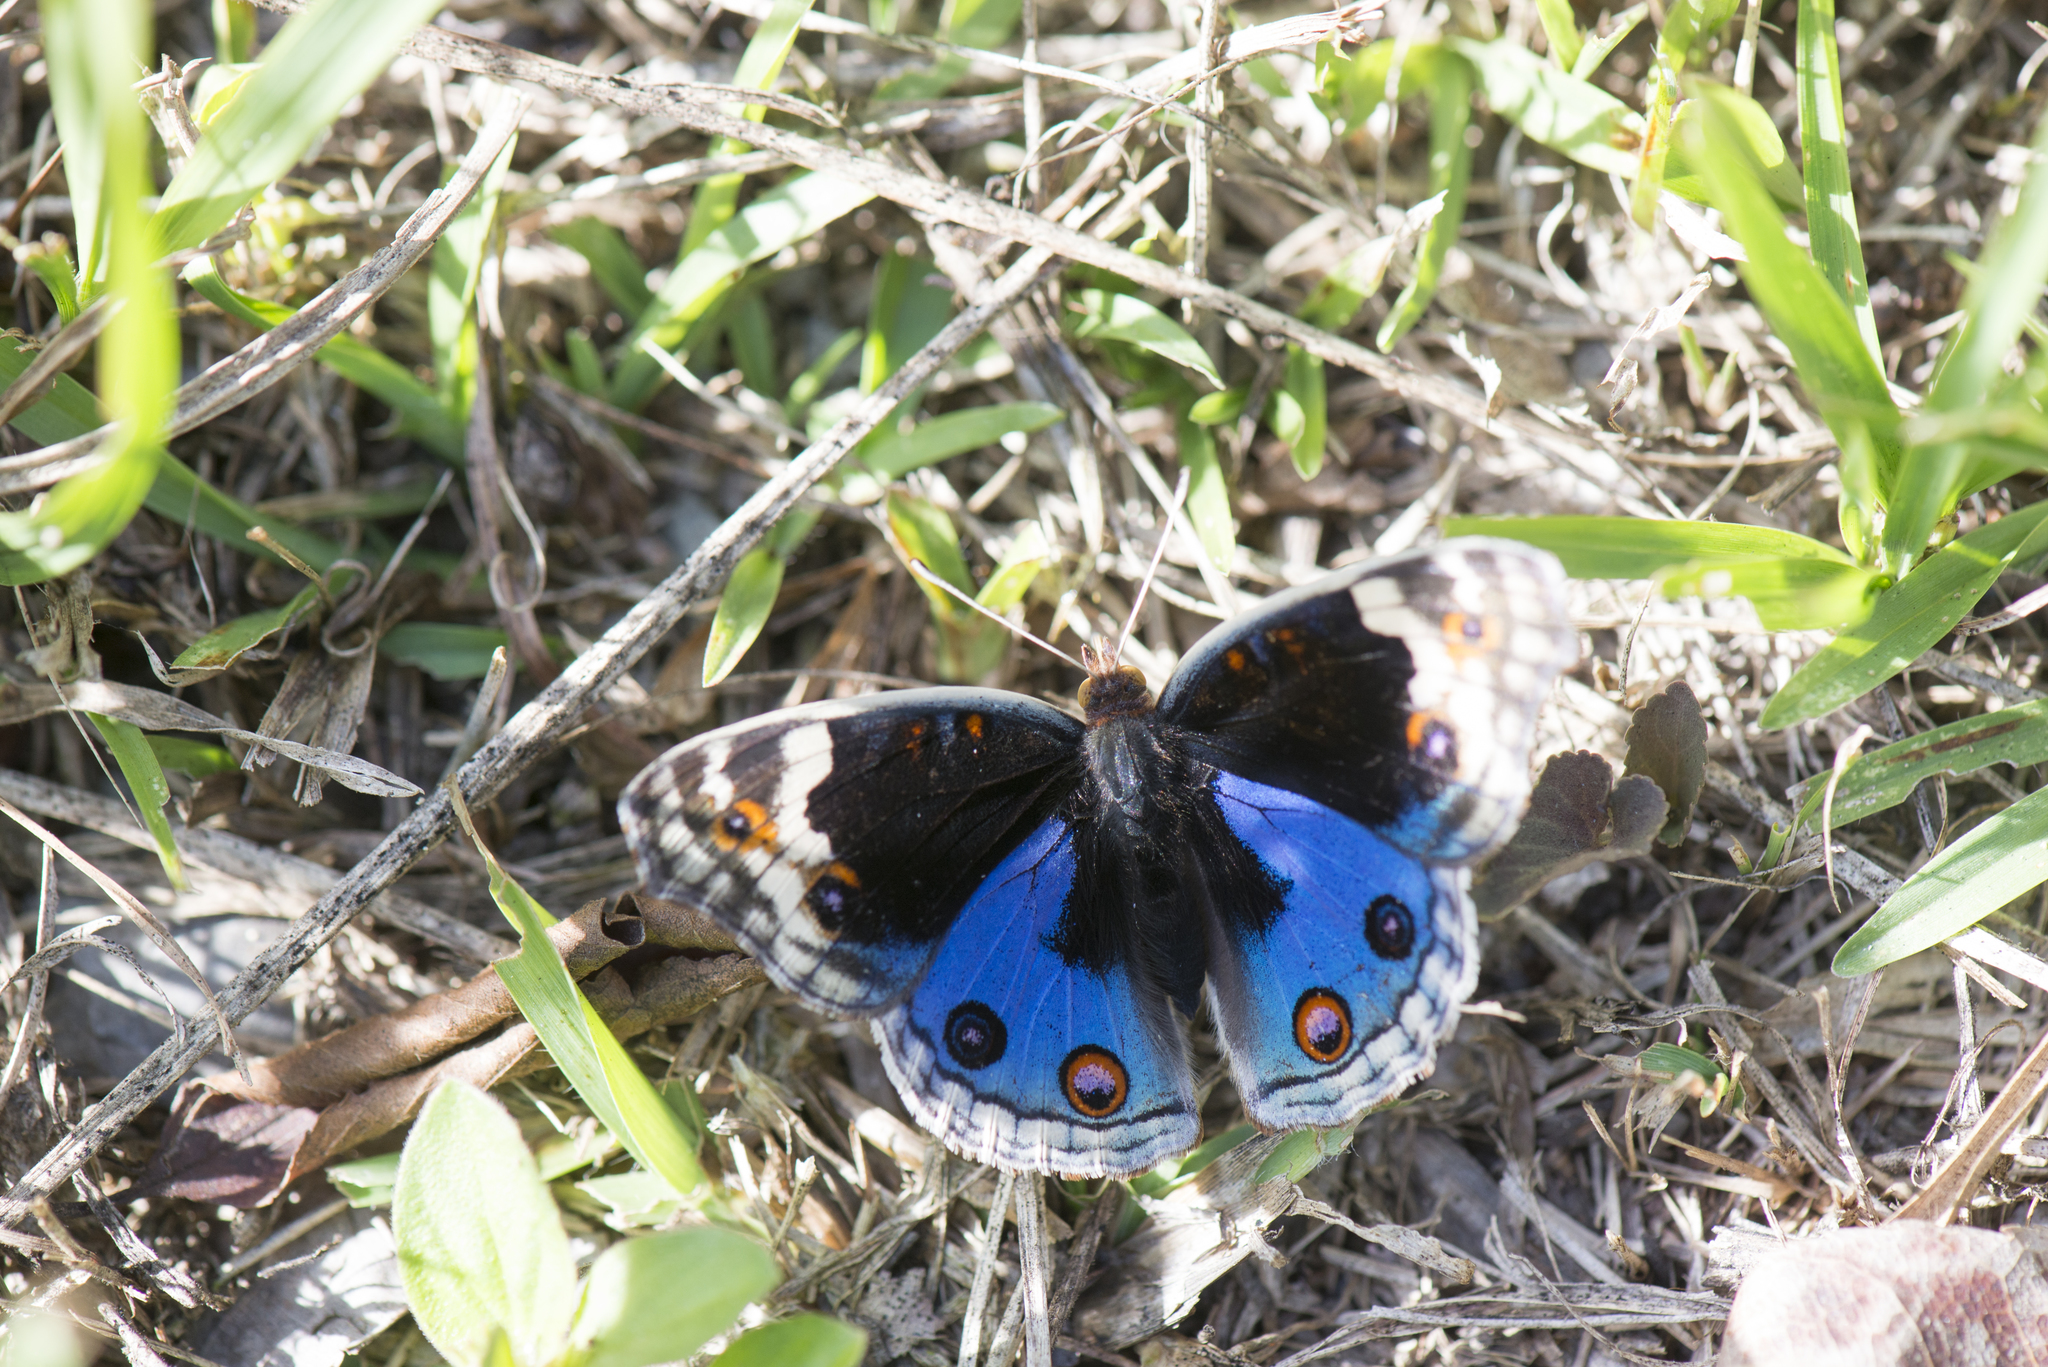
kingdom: Animalia
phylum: Arthropoda
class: Insecta
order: Lepidoptera
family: Nymphalidae
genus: Junonia
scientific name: Junonia orithya
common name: Blue pansy
